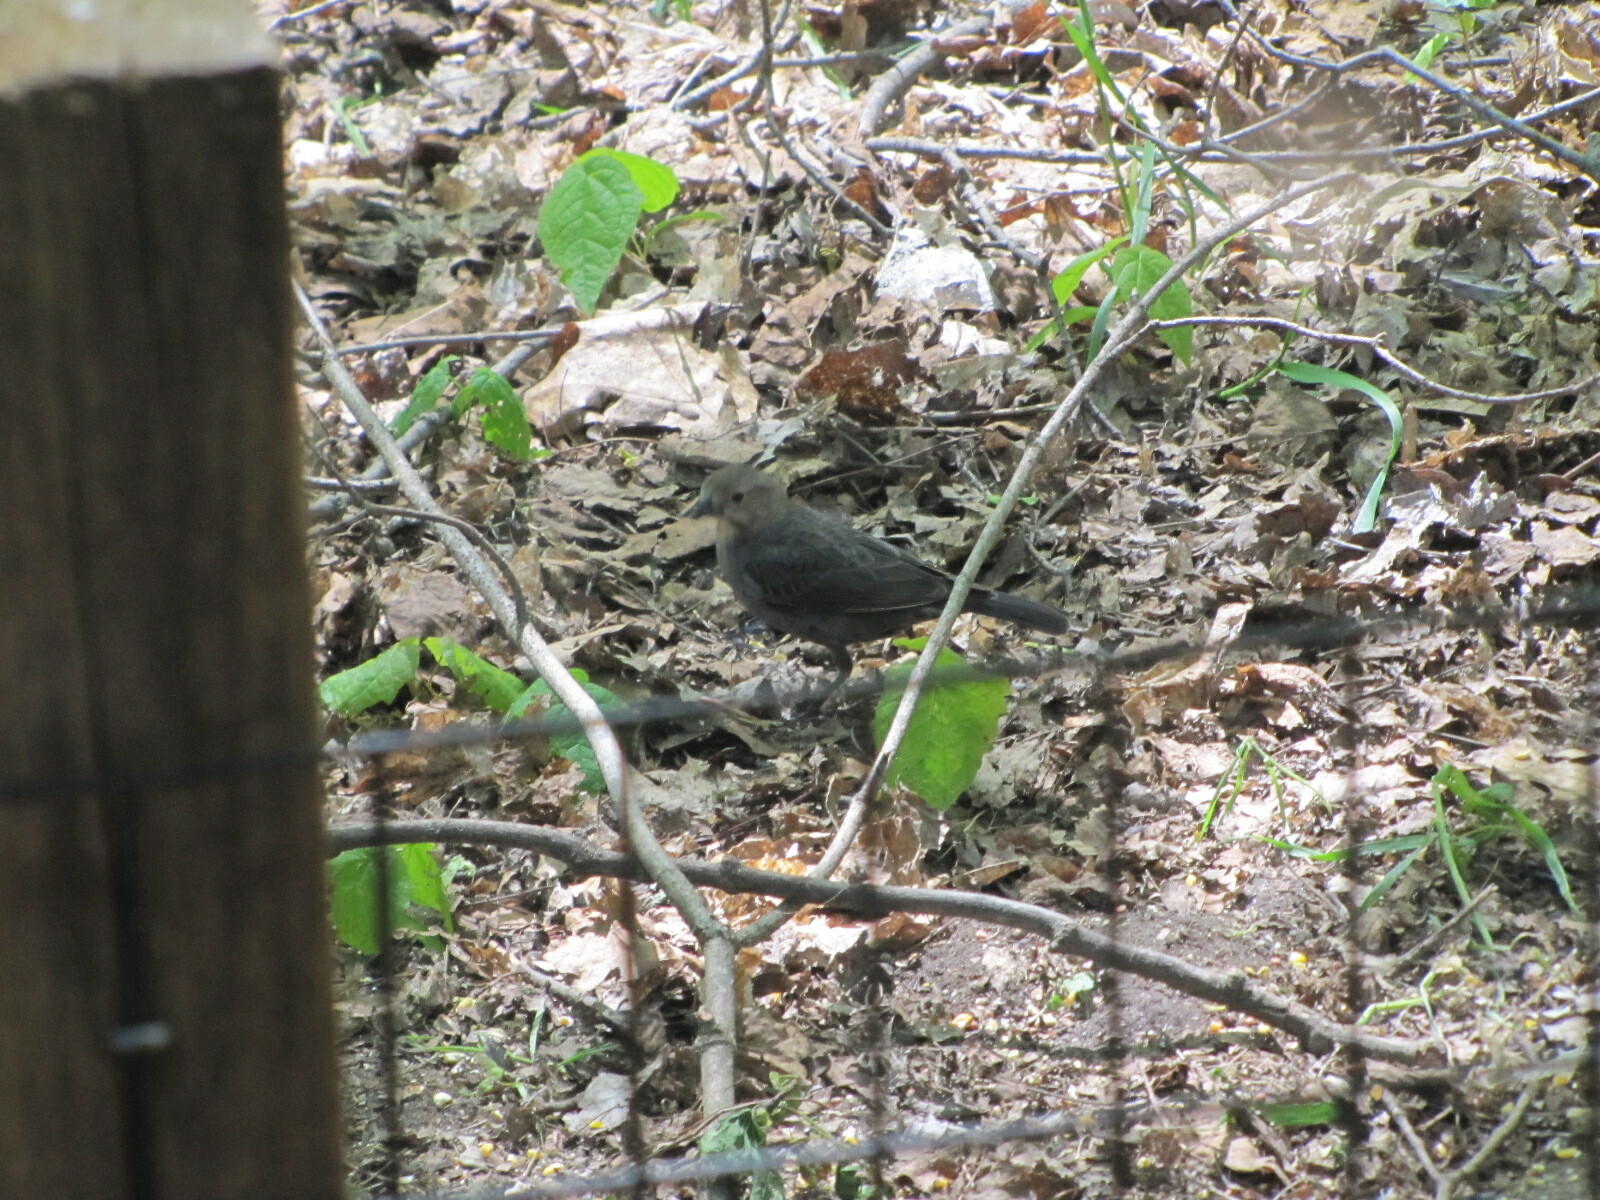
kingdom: Animalia
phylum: Chordata
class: Aves
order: Passeriformes
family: Icteridae
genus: Molothrus
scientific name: Molothrus ater
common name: Brown-headed cowbird
